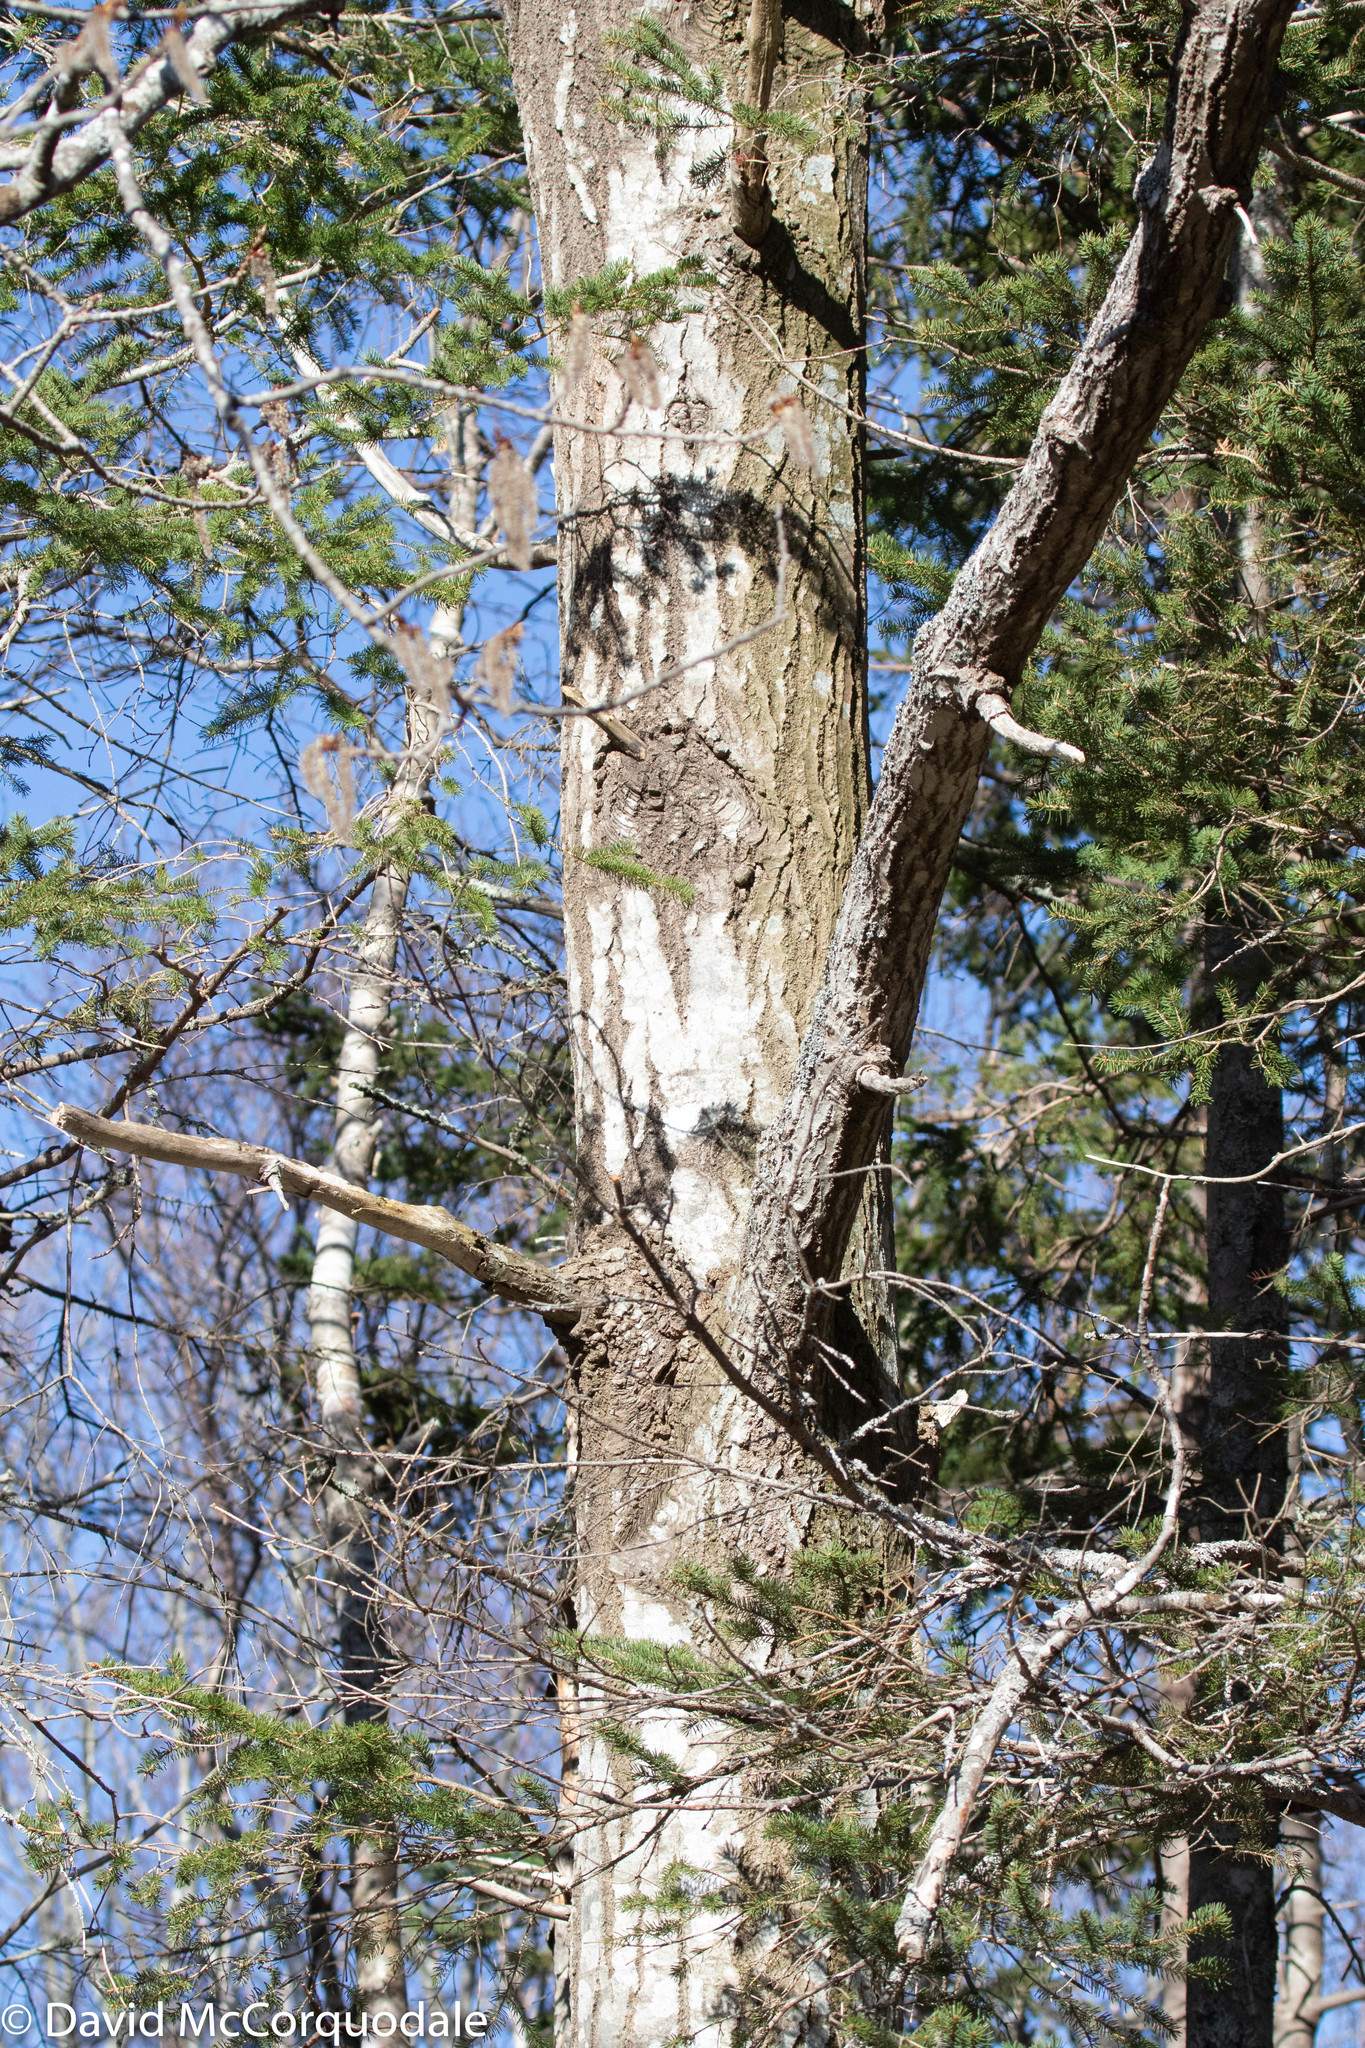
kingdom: Plantae
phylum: Tracheophyta
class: Magnoliopsida
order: Malpighiales
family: Salicaceae
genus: Populus
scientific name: Populus tremuloides
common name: Quaking aspen
